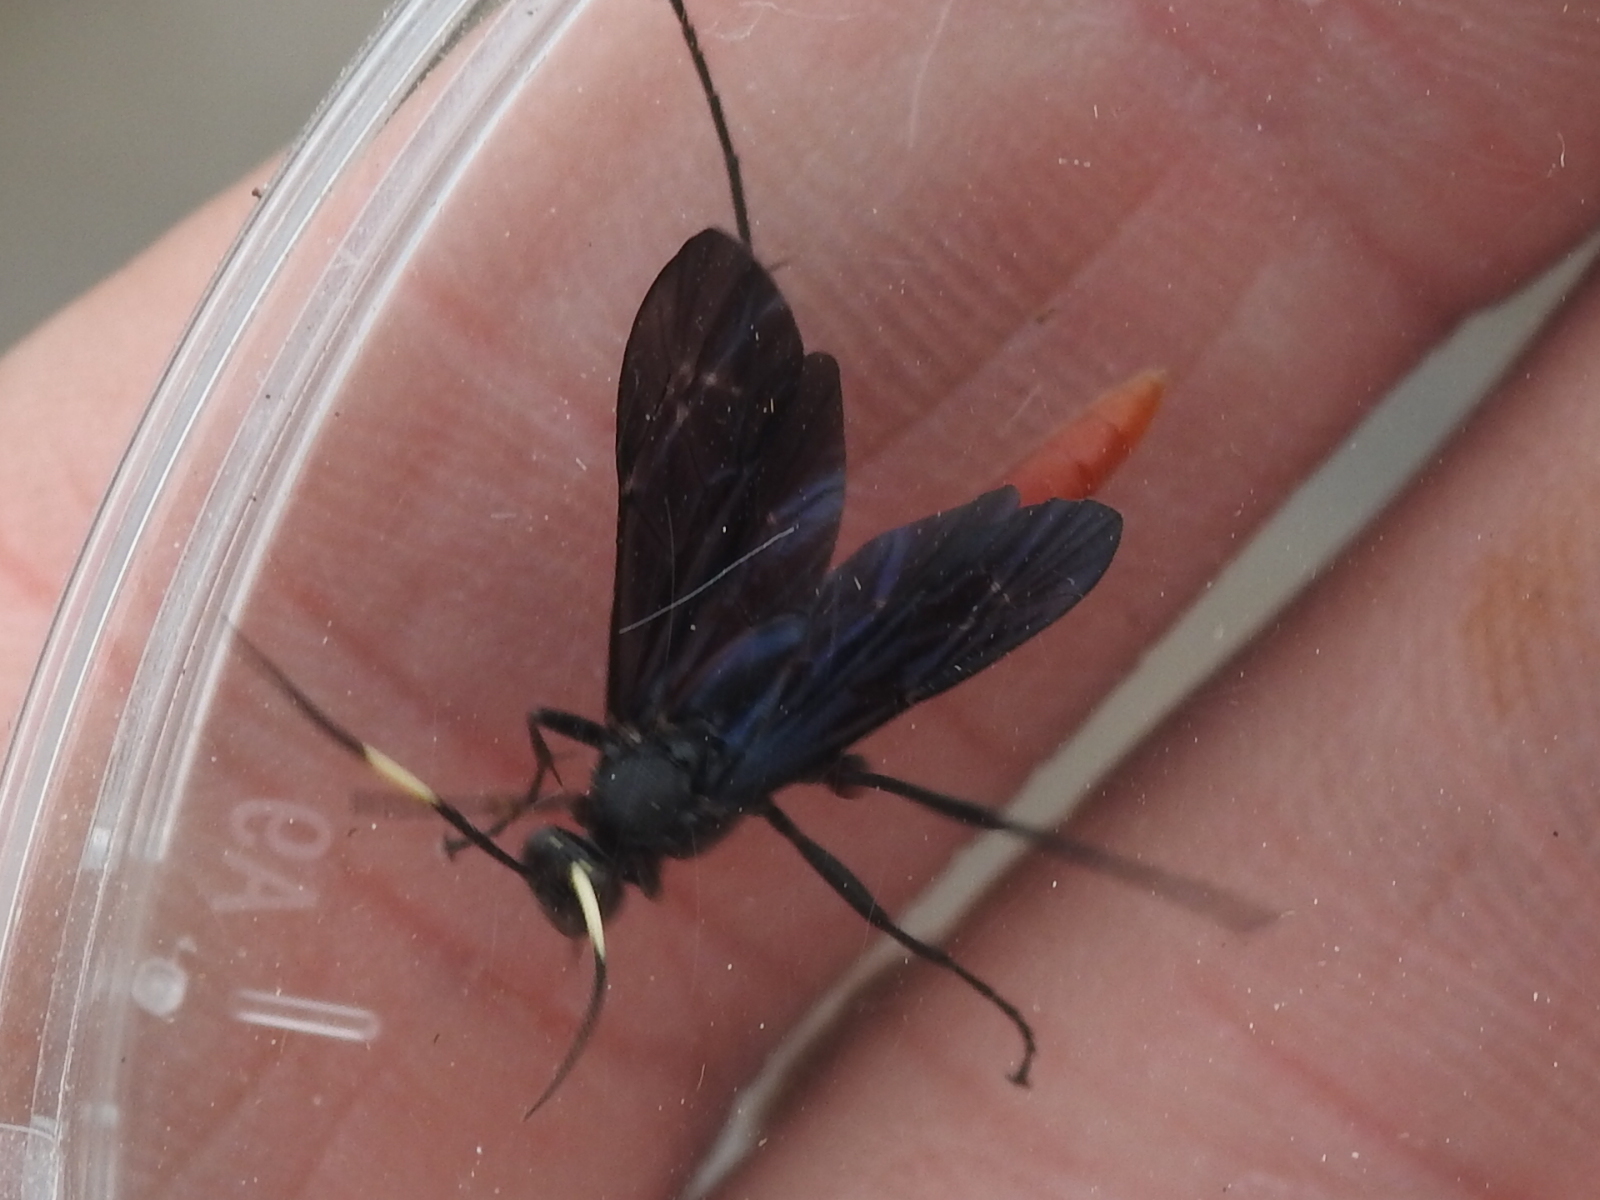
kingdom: Animalia
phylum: Arthropoda
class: Insecta
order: Hymenoptera
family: Ichneumonidae
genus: Limonethe
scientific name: Limonethe maurator
